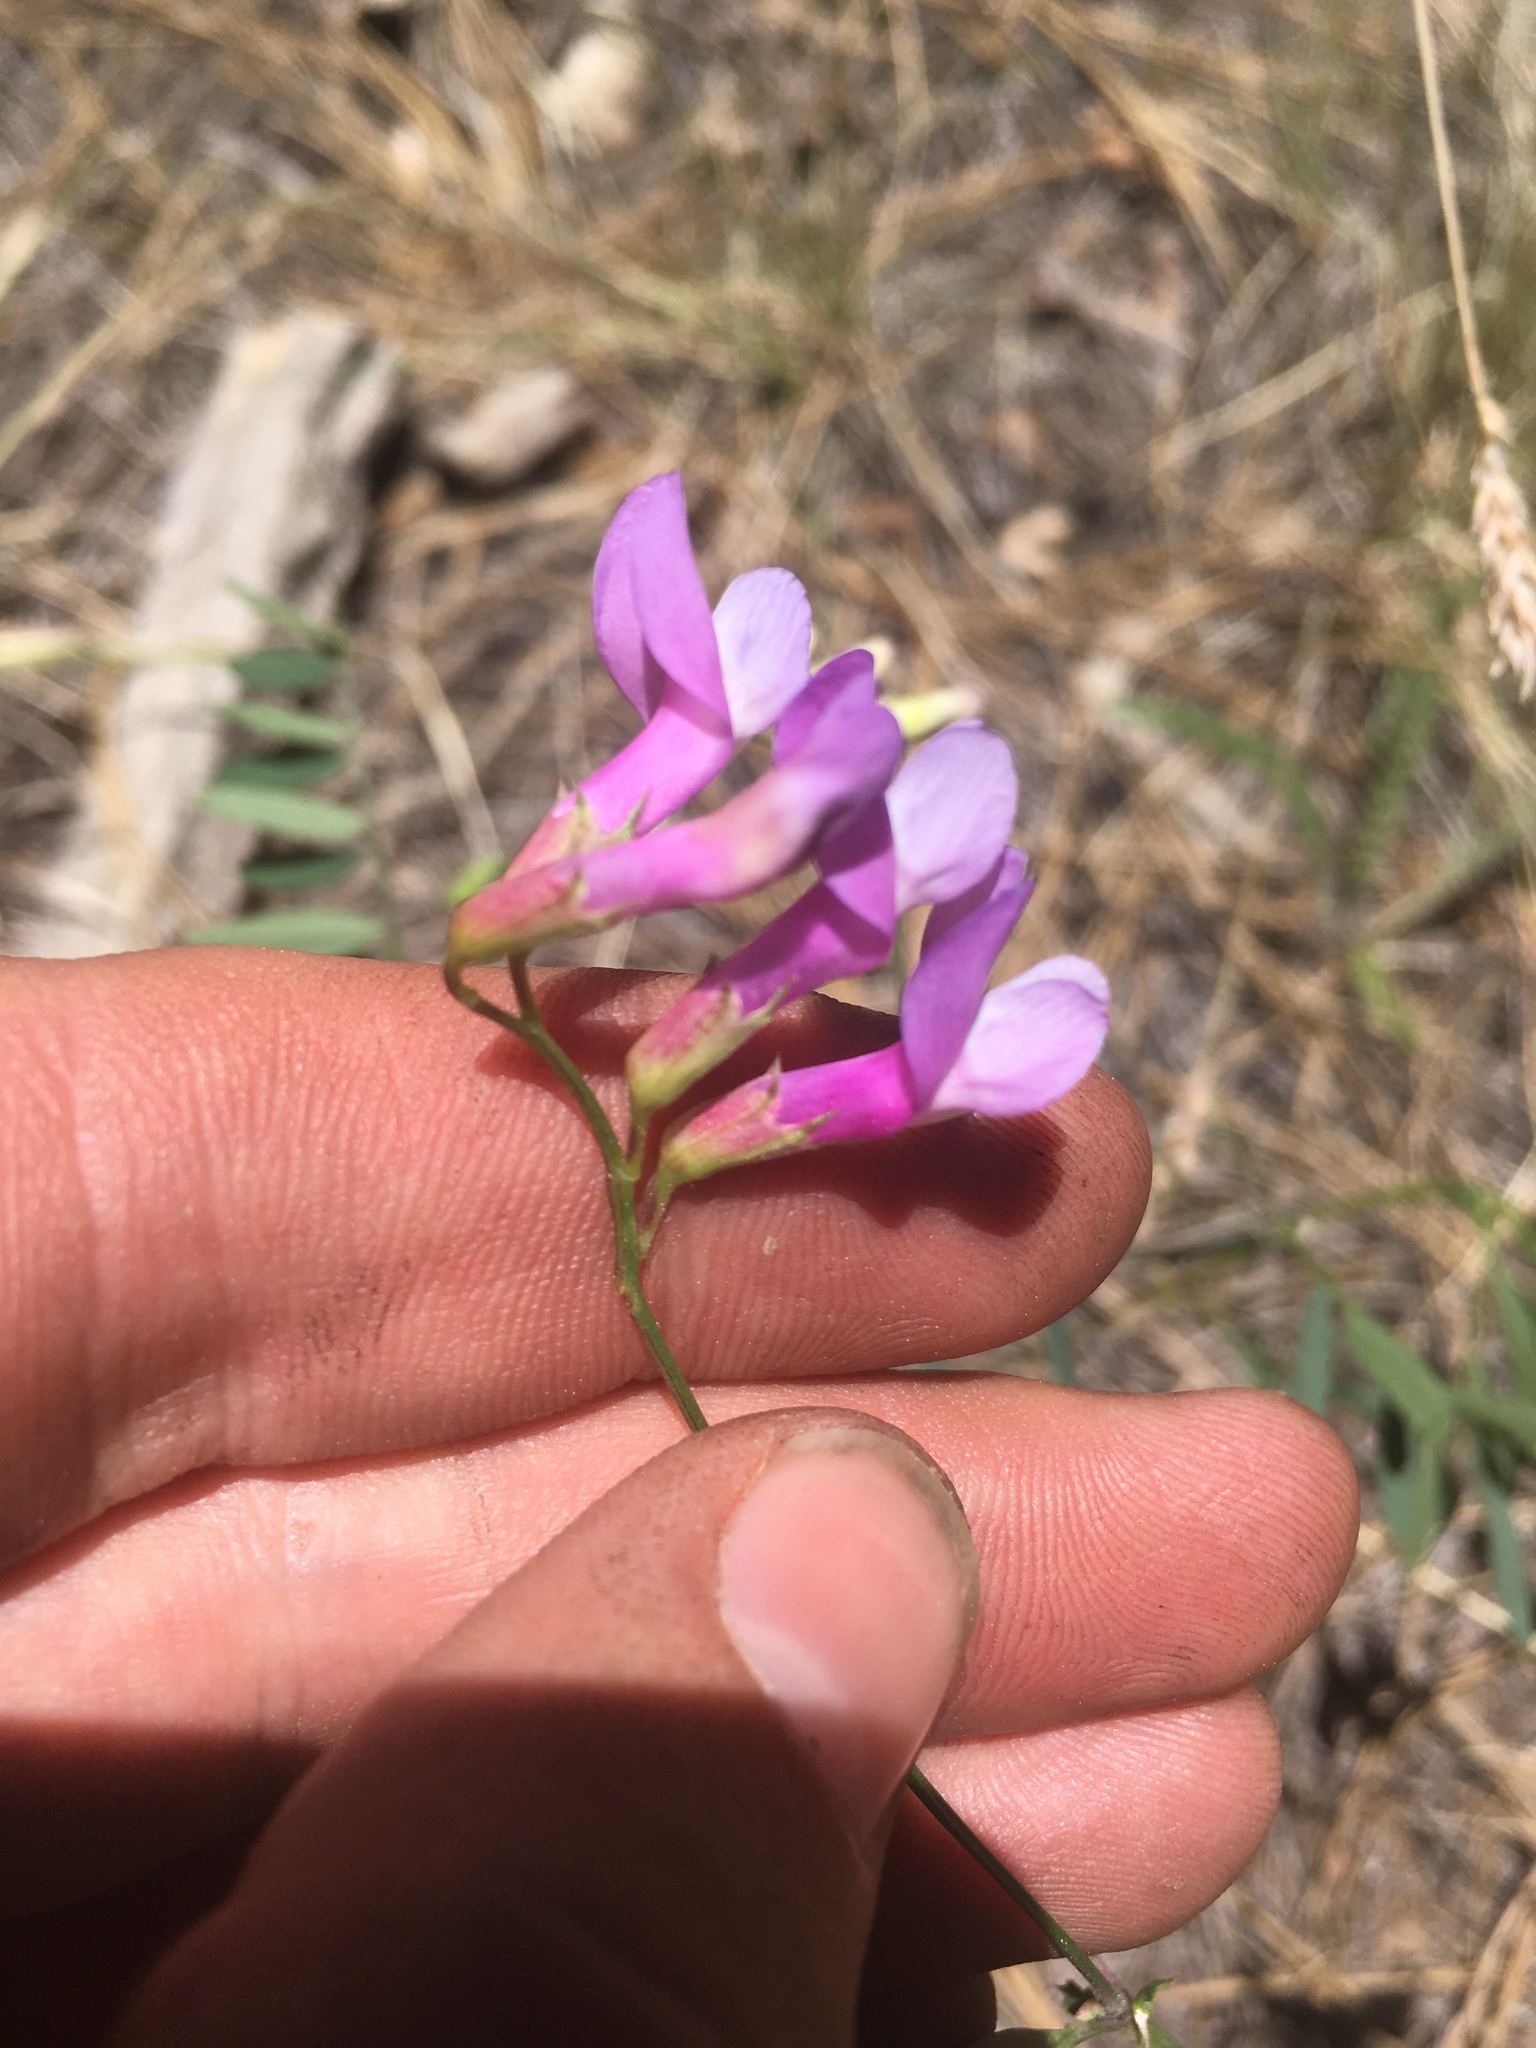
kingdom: Plantae
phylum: Tracheophyta
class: Magnoliopsida
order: Fabales
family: Fabaceae
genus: Vicia
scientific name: Vicia americana
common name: American vetch
